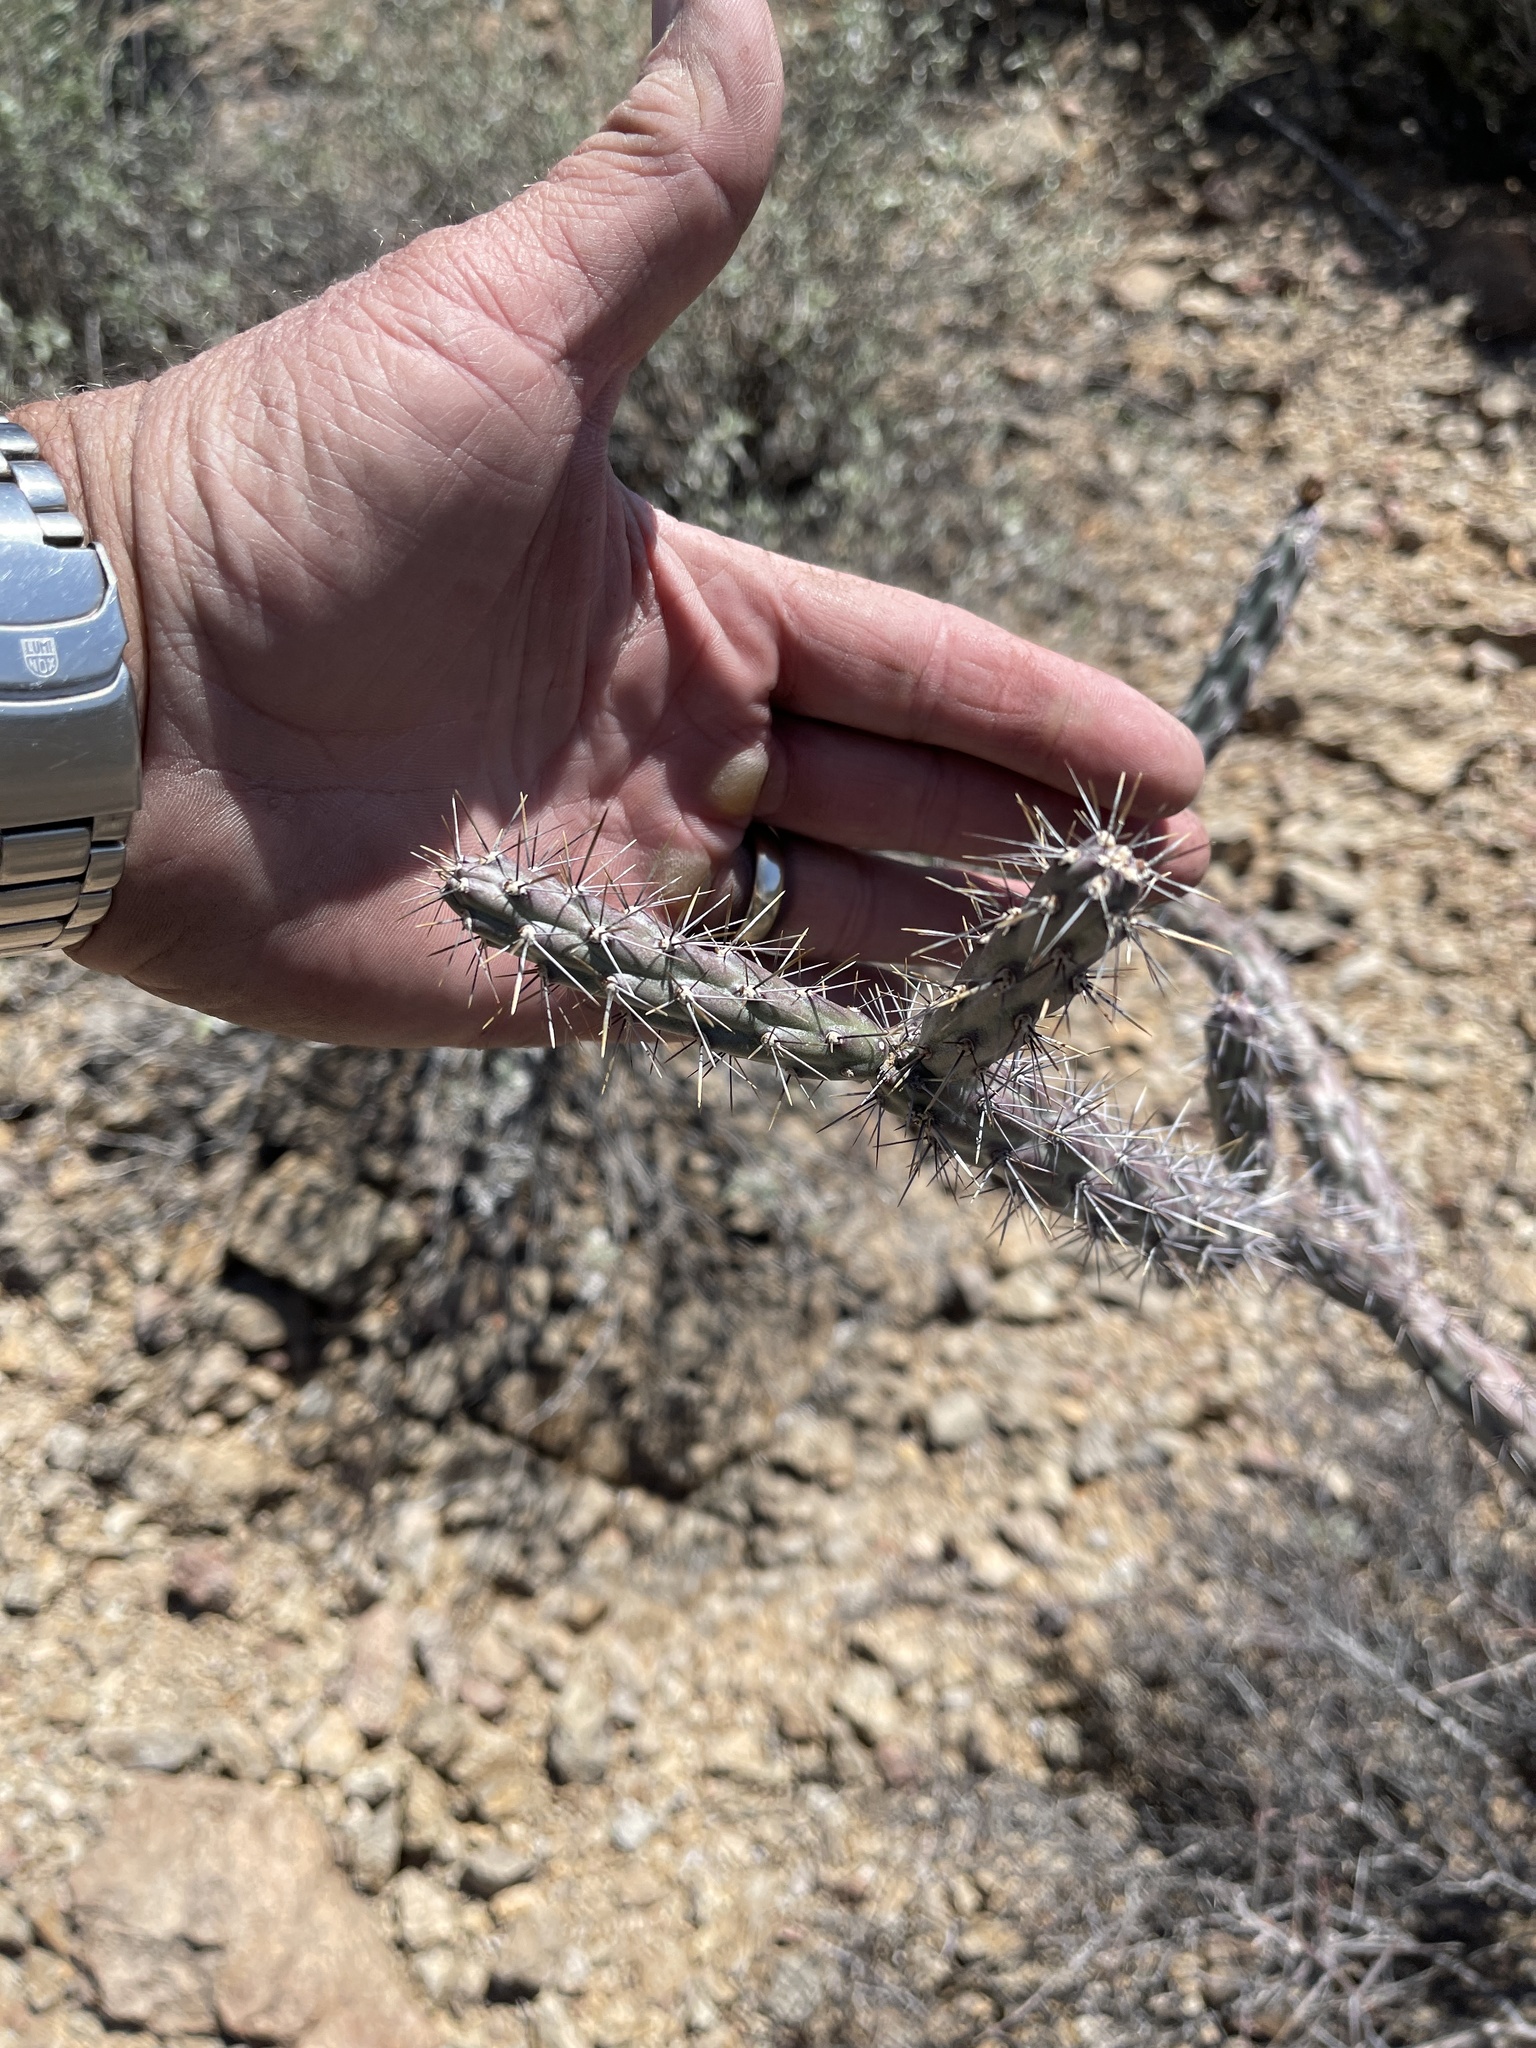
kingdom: Plantae
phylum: Tracheophyta
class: Magnoliopsida
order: Caryophyllales
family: Cactaceae
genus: Cylindropuntia
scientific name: Cylindropuntia acanthocarpa
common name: Buckhorn cholla
